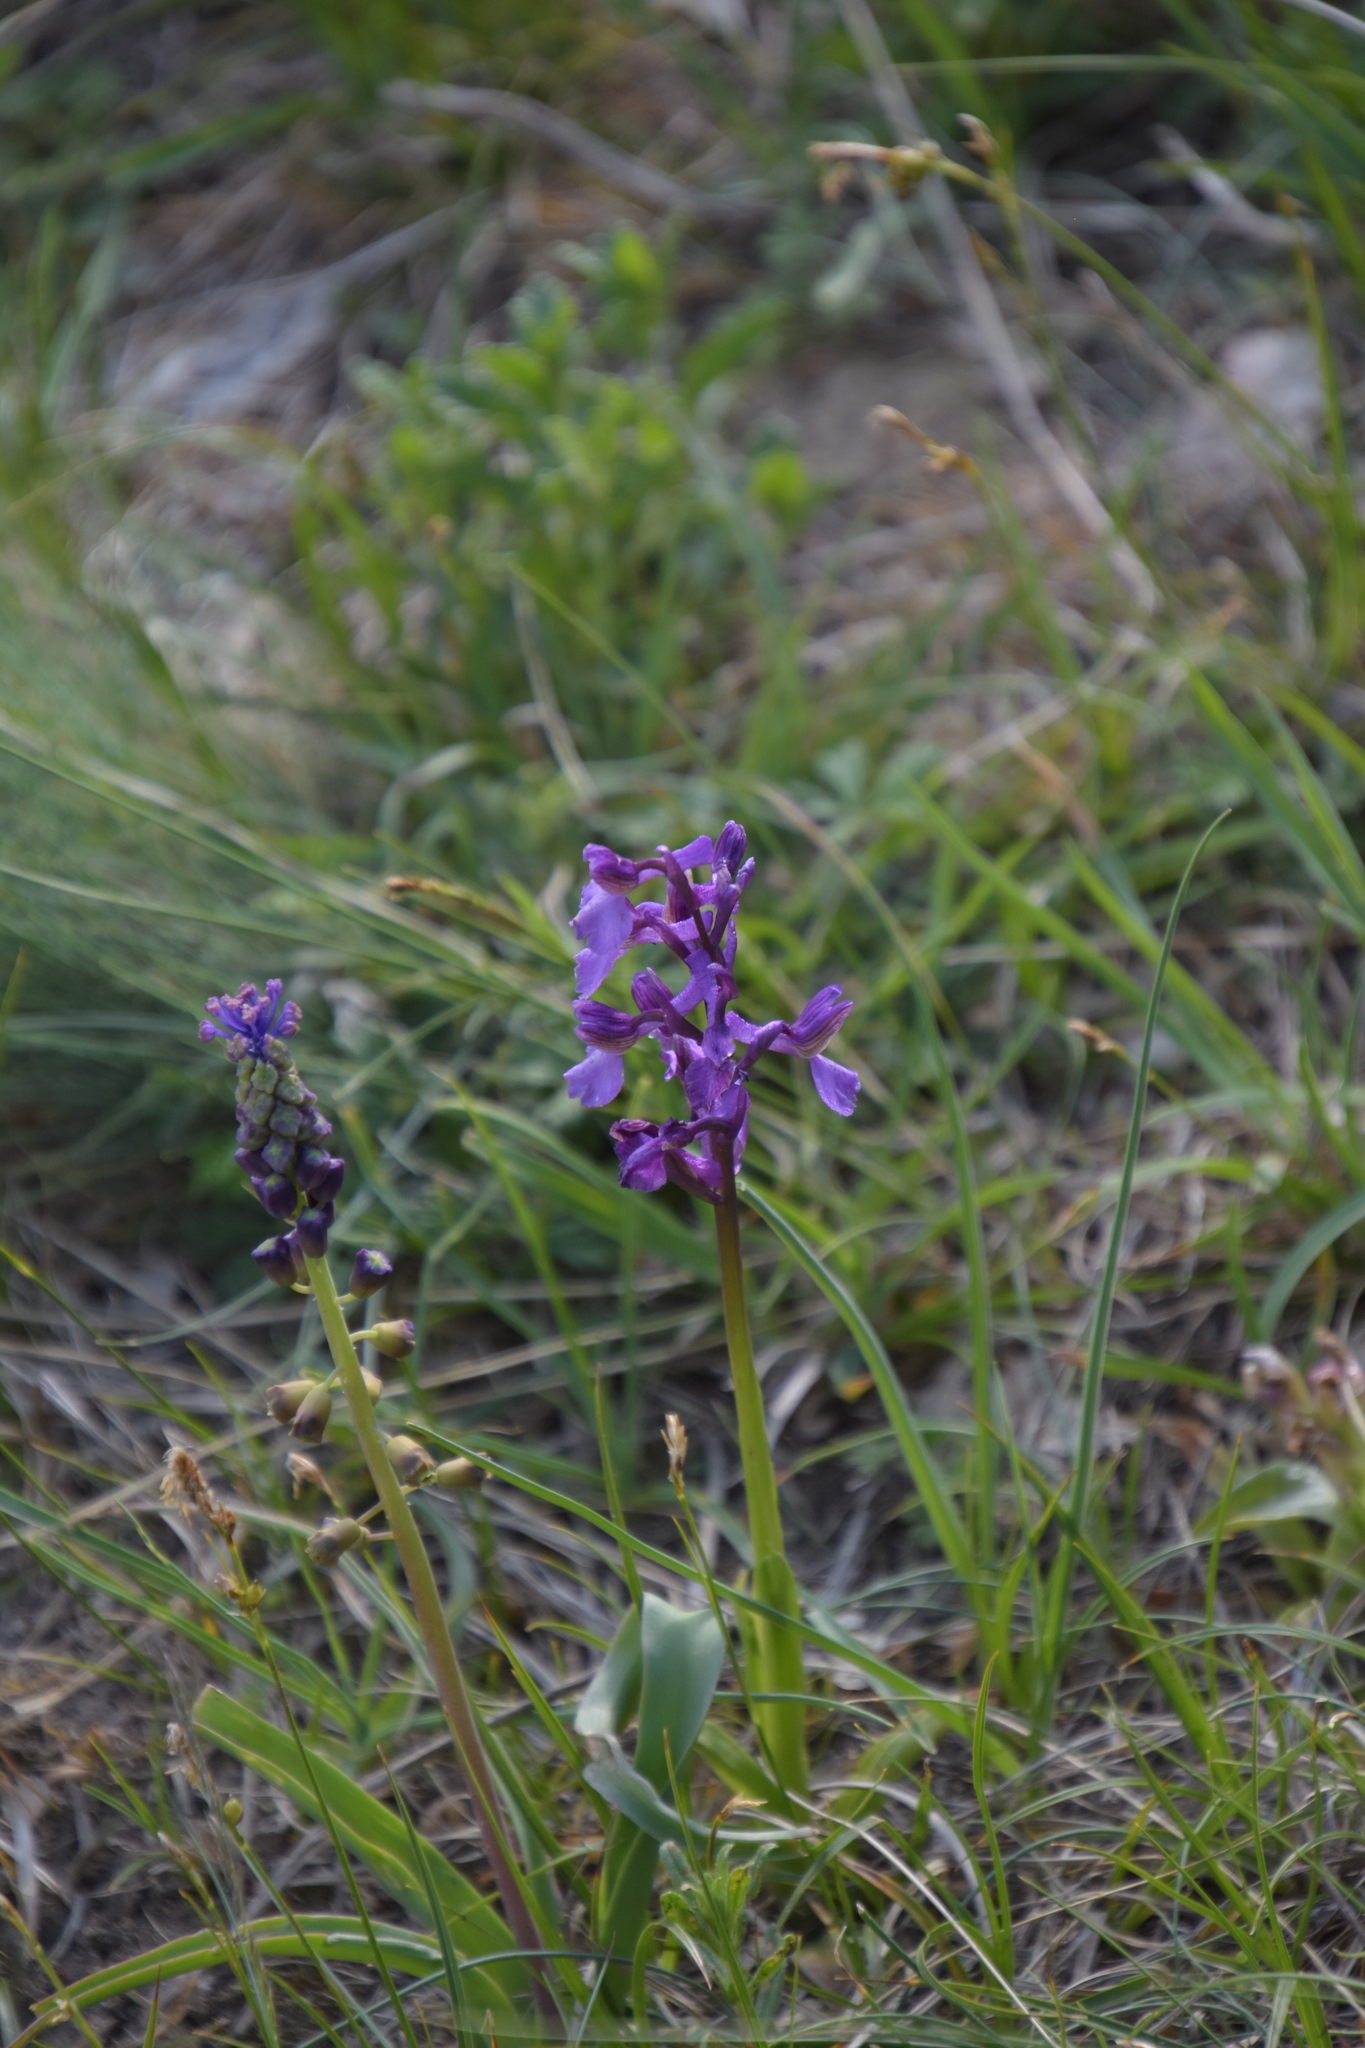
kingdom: Plantae
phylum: Tracheophyta
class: Liliopsida
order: Asparagales
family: Orchidaceae
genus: Anacamptis
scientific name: Anacamptis morio
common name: Green-winged orchid
